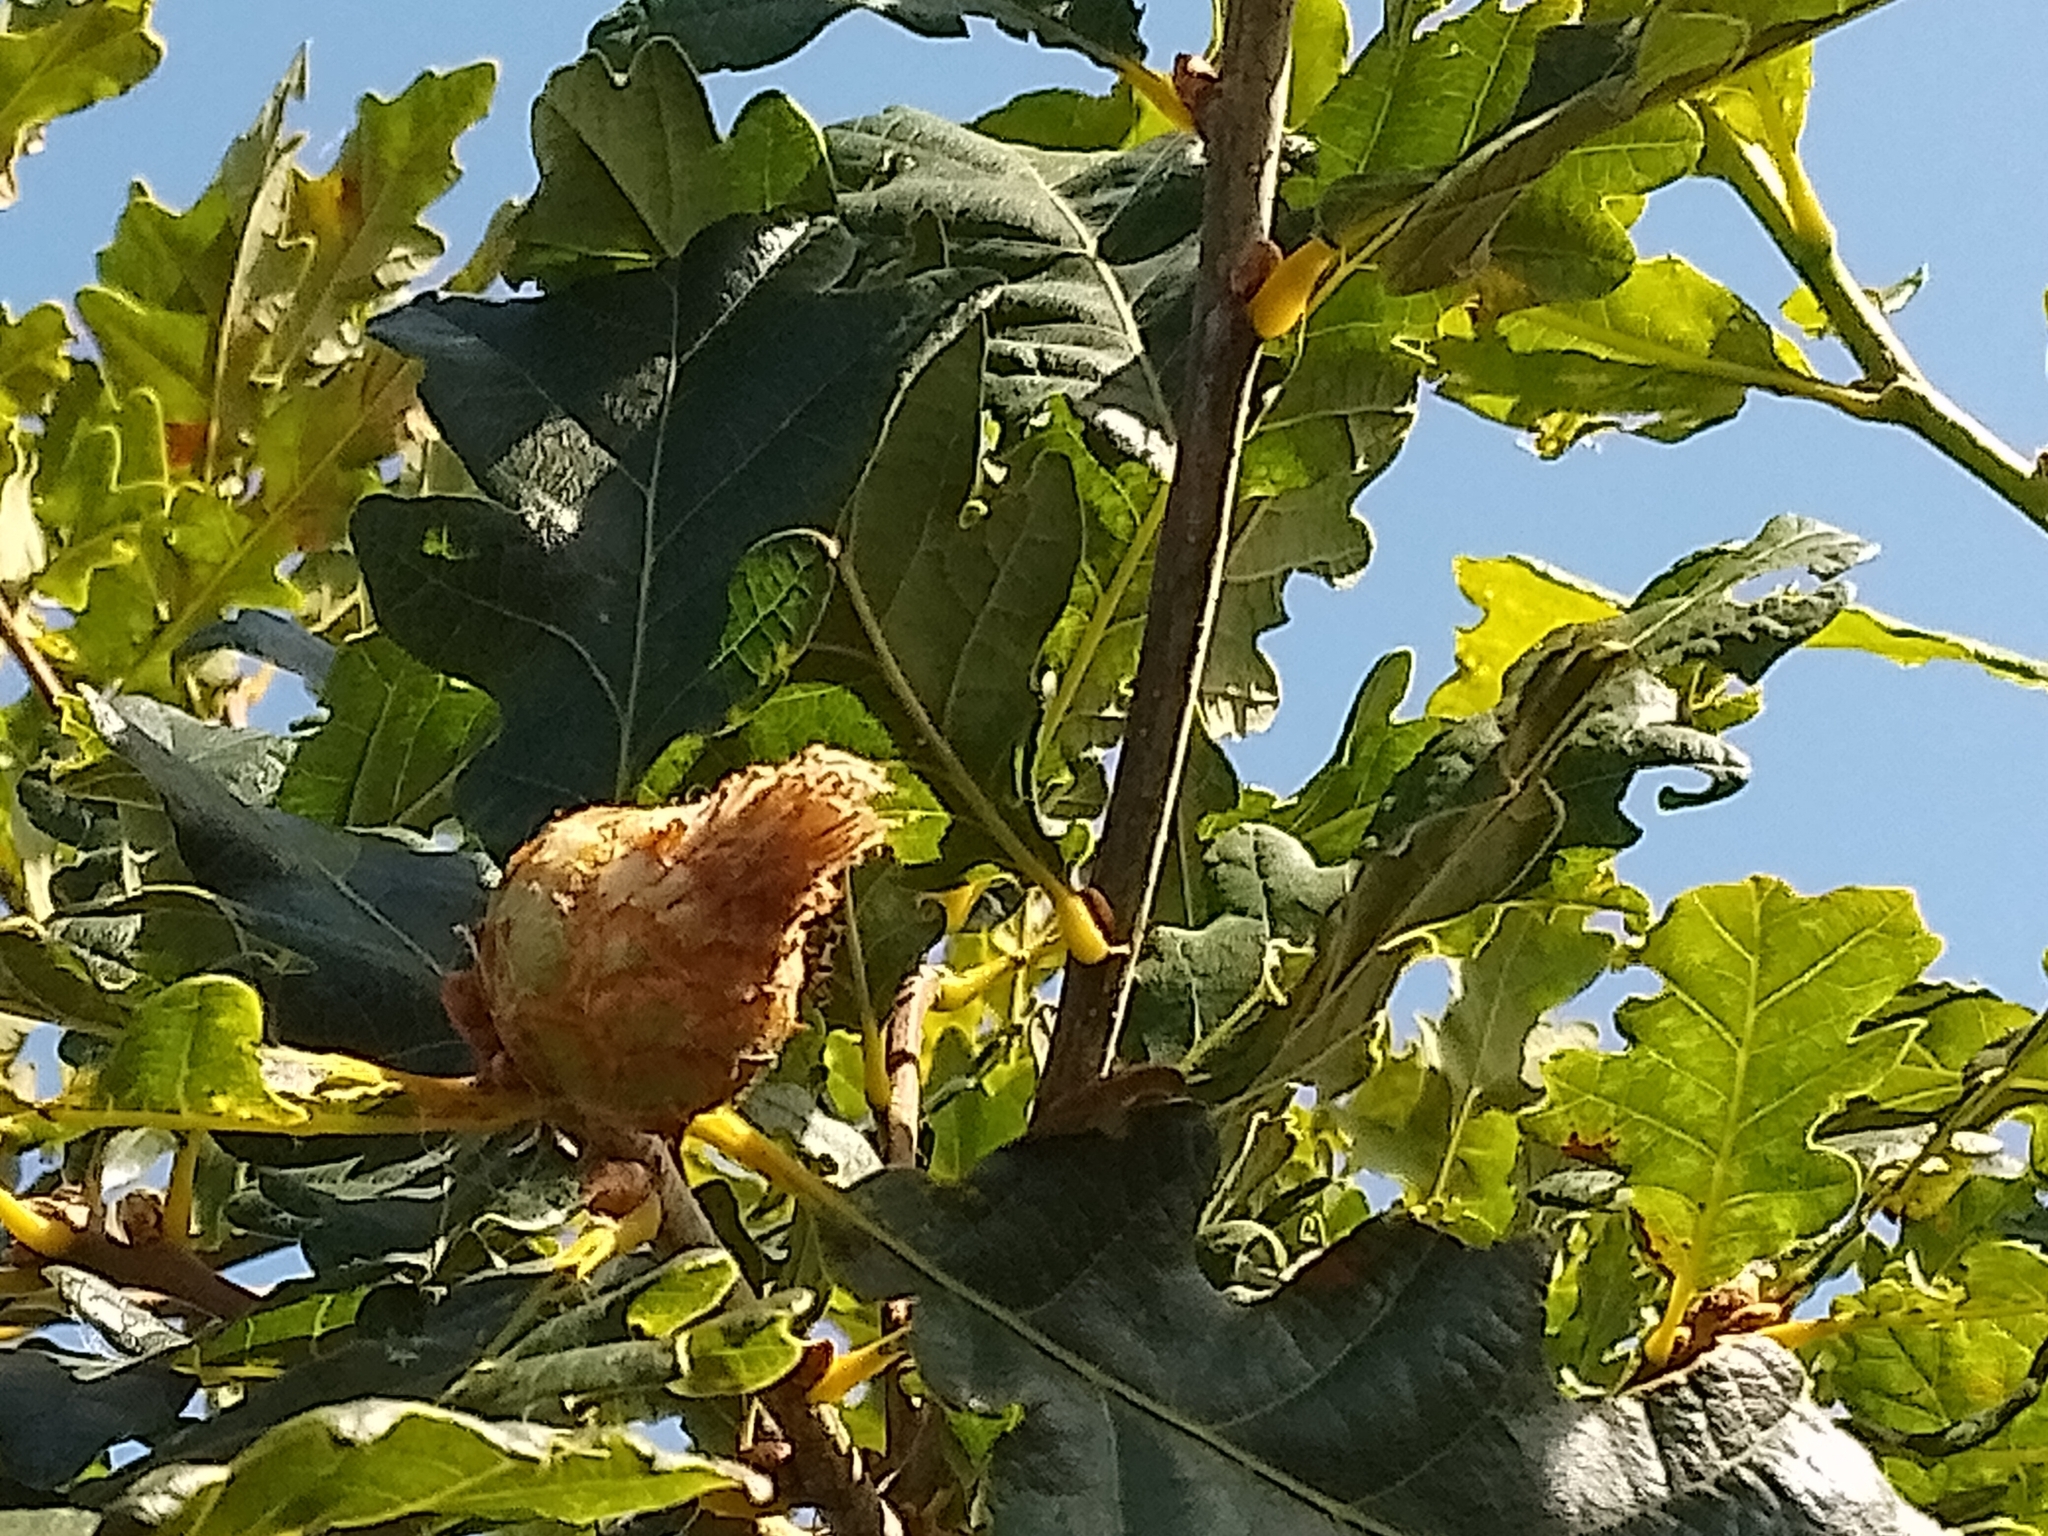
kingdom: Animalia
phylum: Arthropoda
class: Insecta
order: Hymenoptera
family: Cynipidae
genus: Andricus
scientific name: Andricus foecundatrix
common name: Artichoke gall
